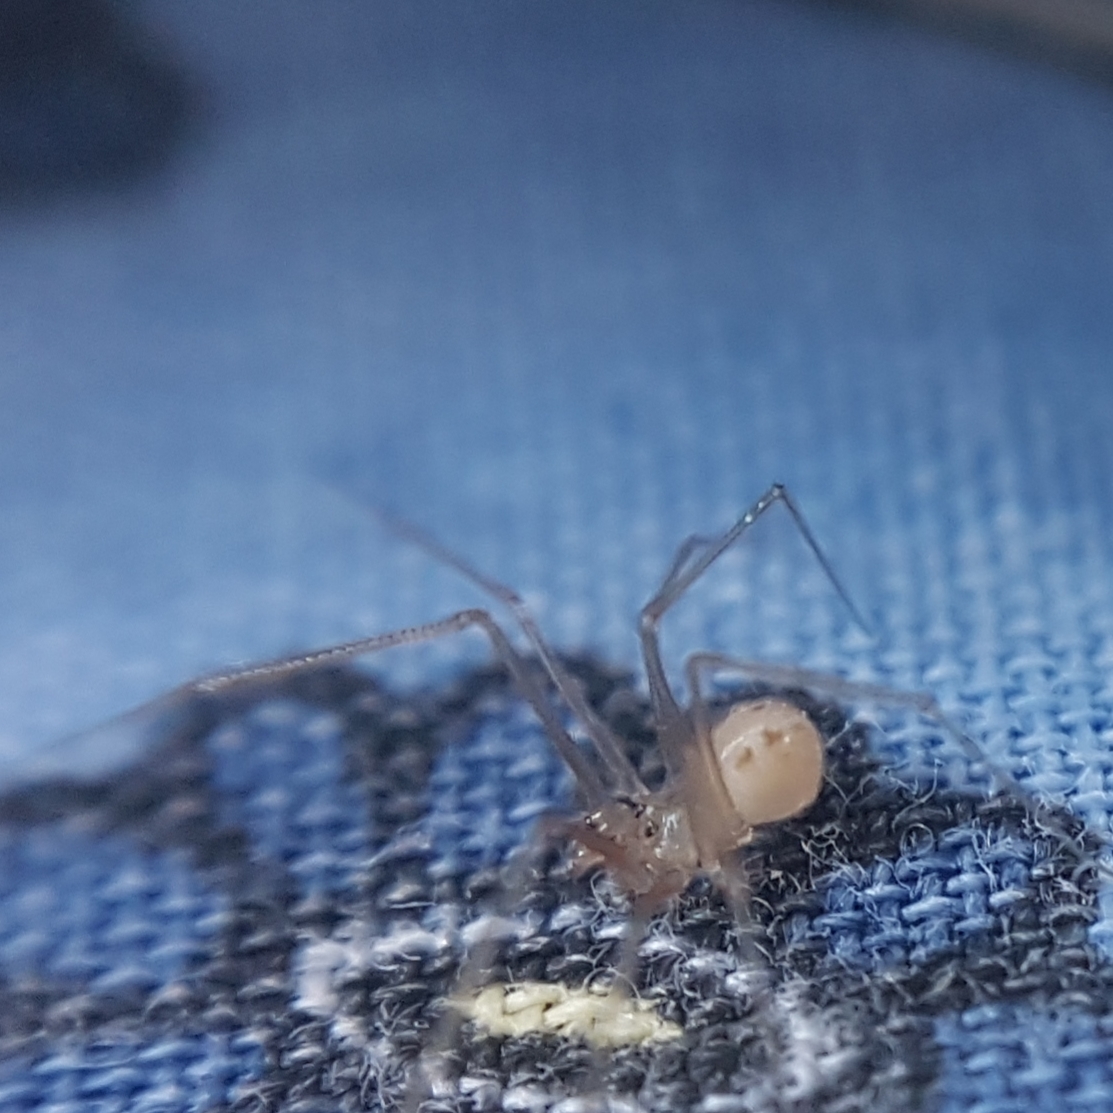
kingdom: Animalia
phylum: Arthropoda
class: Arachnida
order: Araneae
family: Pholcidae
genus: Spermophora
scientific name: Spermophora senoculata
